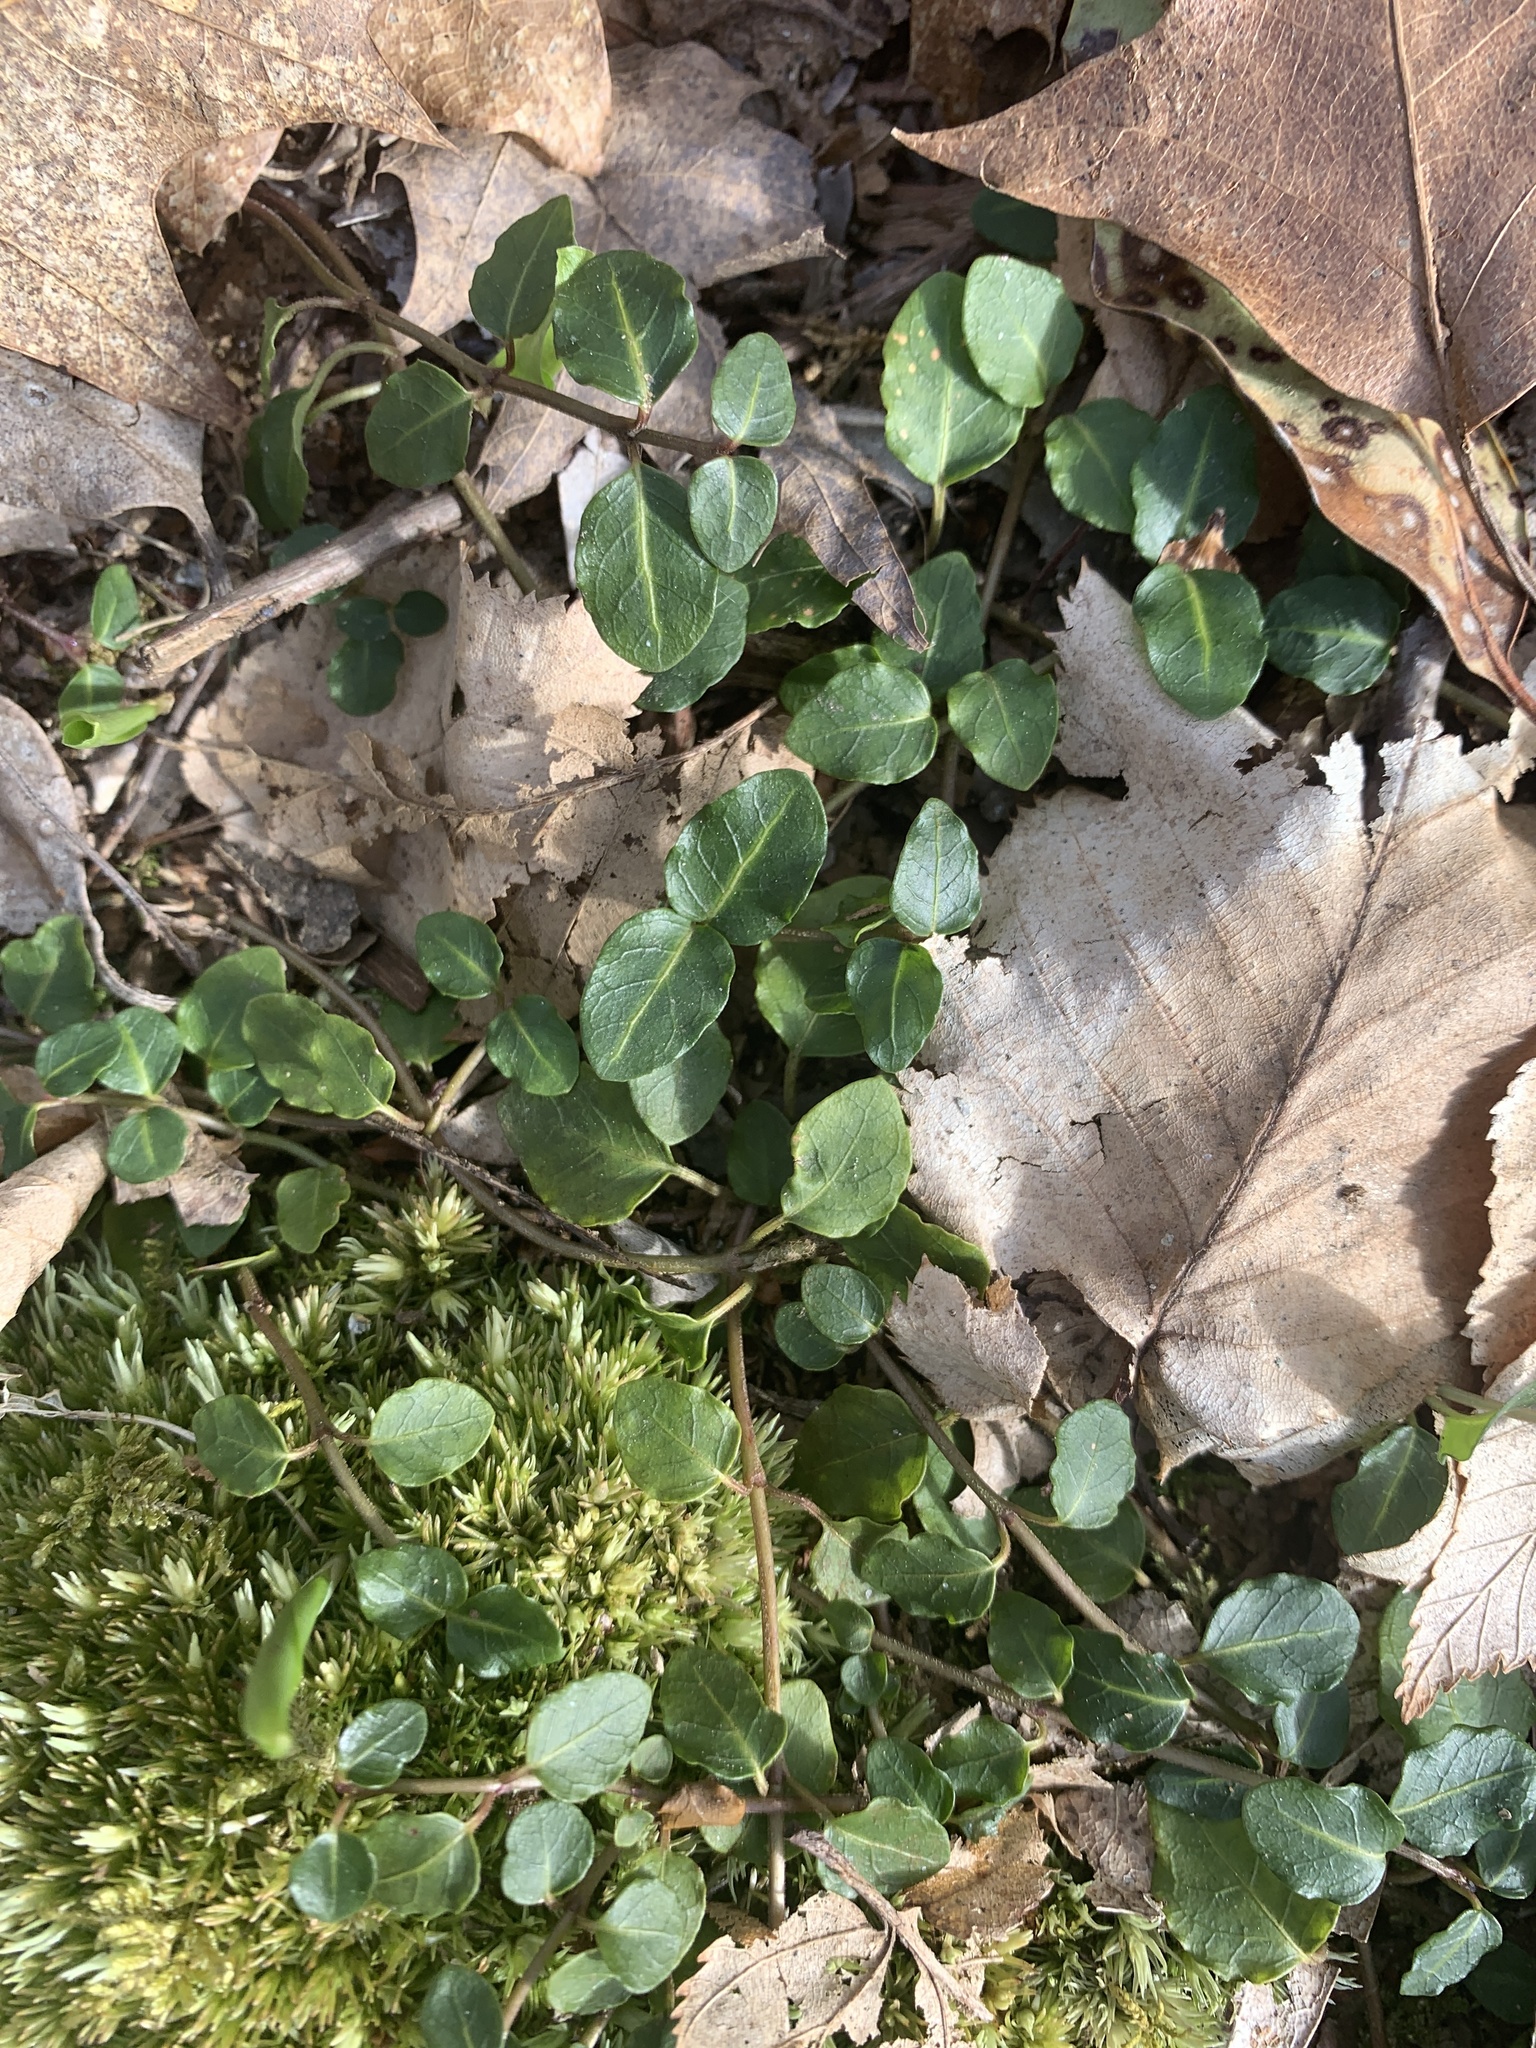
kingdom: Plantae
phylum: Tracheophyta
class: Magnoliopsida
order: Gentianales
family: Rubiaceae
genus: Mitchella
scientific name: Mitchella repens
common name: Partridge-berry
